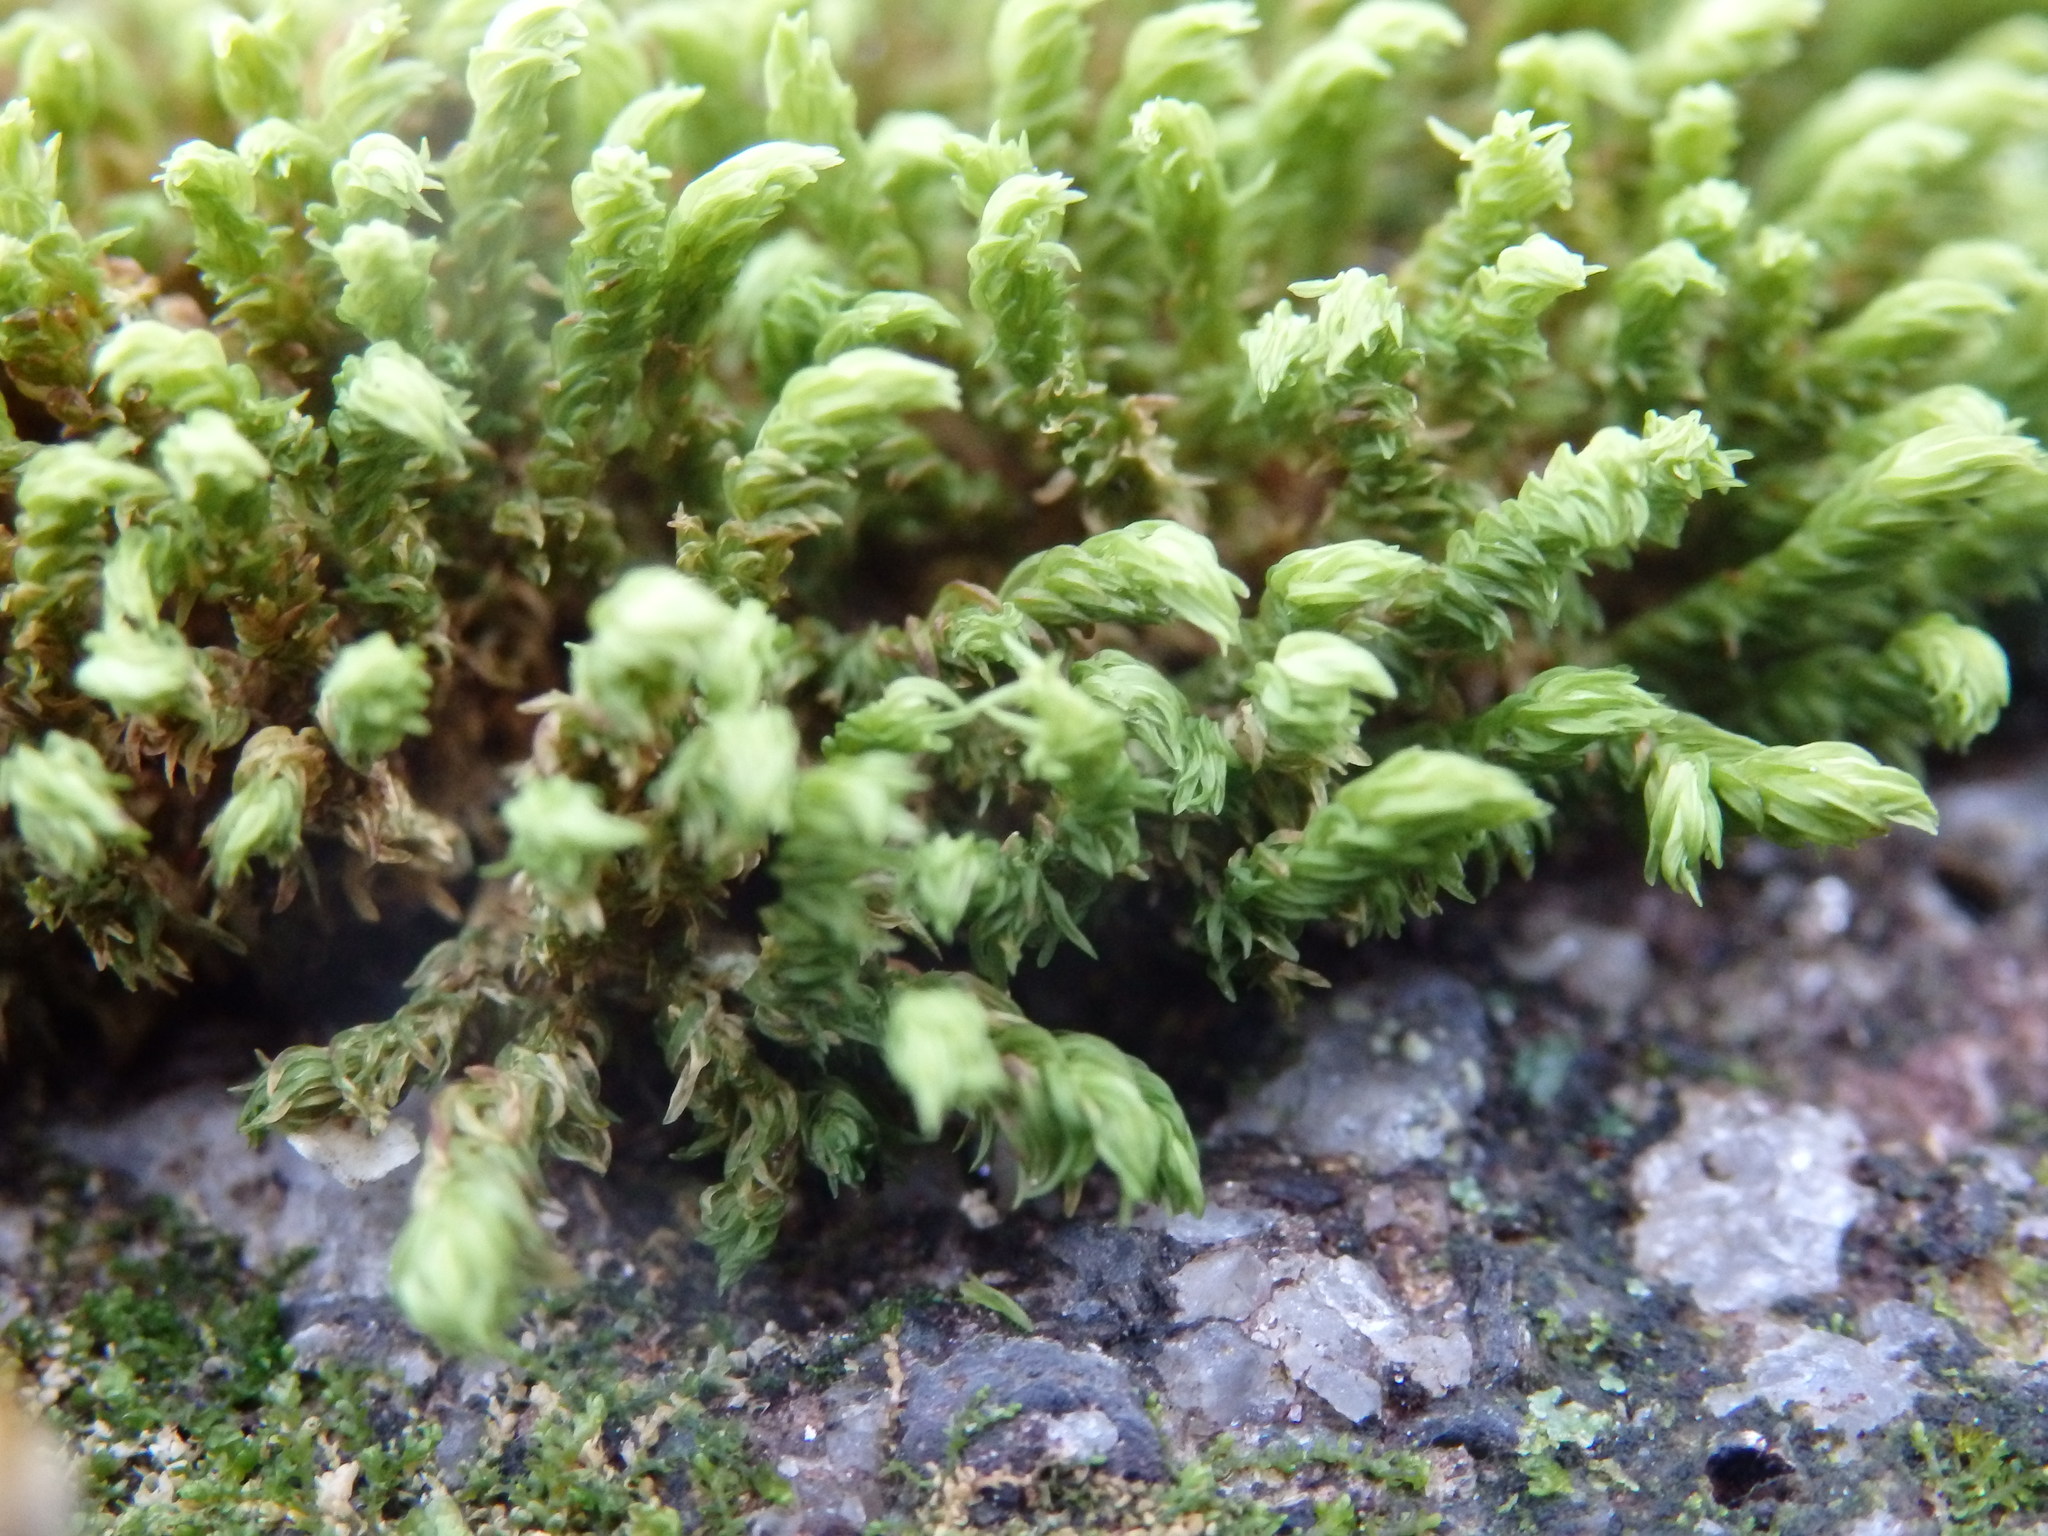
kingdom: Plantae
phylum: Bryophyta
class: Bryopsida
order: Grimmiales
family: Grimmiaceae
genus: Codriophorus
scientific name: Codriophorus aquaticus
